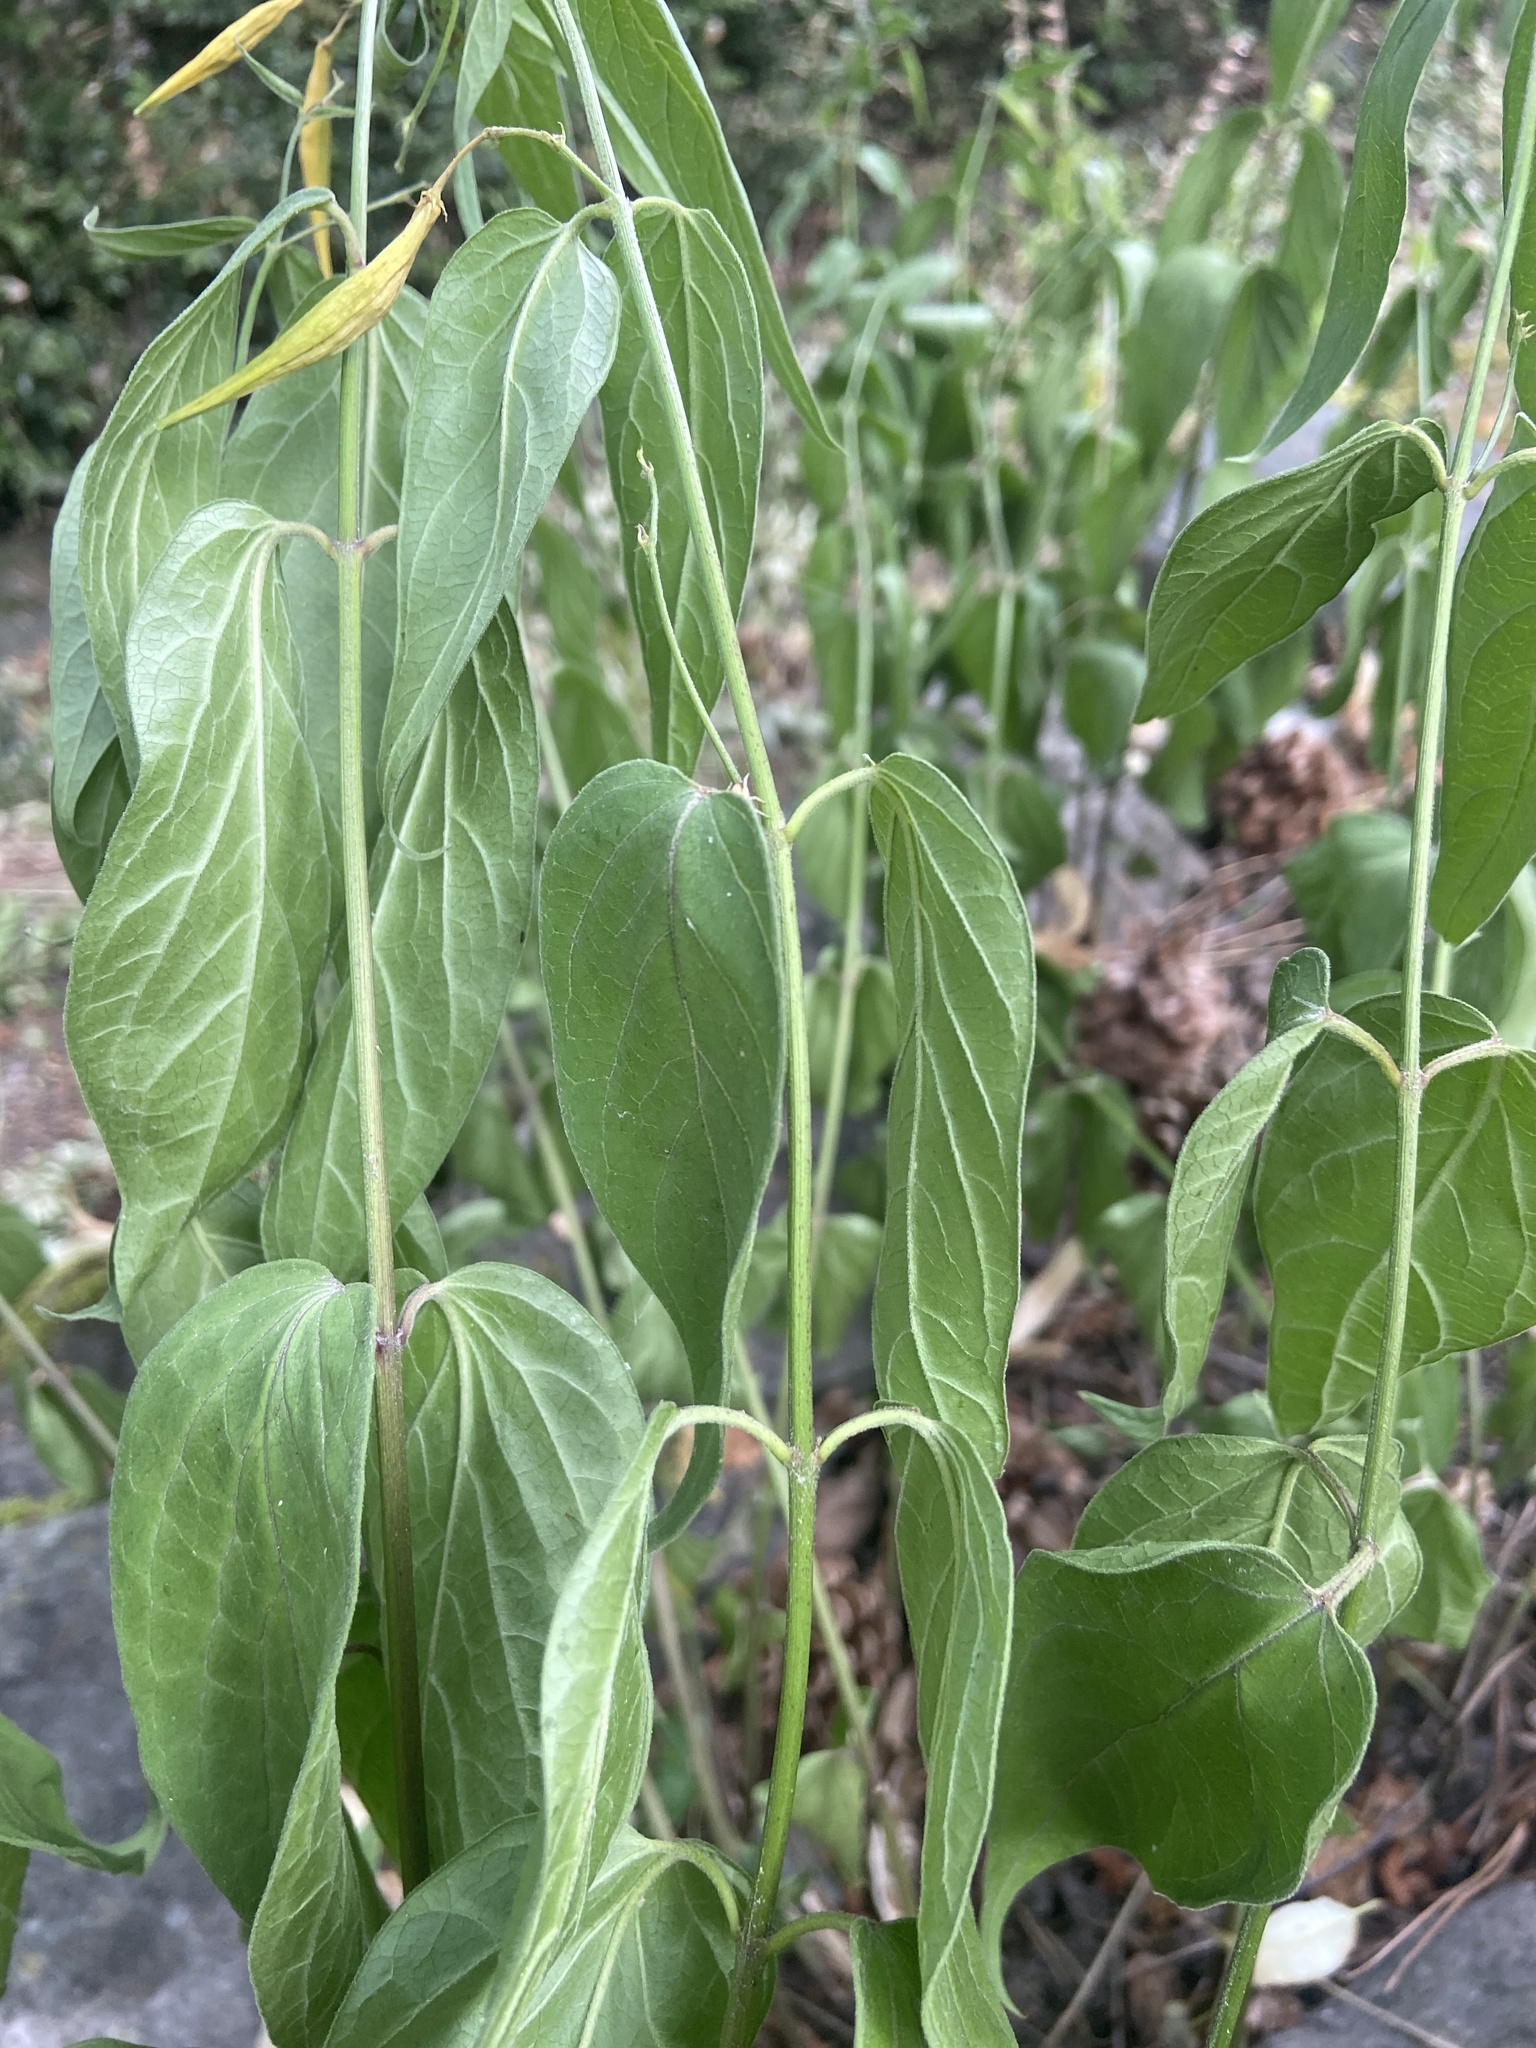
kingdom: Plantae
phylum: Tracheophyta
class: Magnoliopsida
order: Gentianales
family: Apocynaceae
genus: Vincetoxicum
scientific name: Vincetoxicum hirundinaria
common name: White swallowwort
